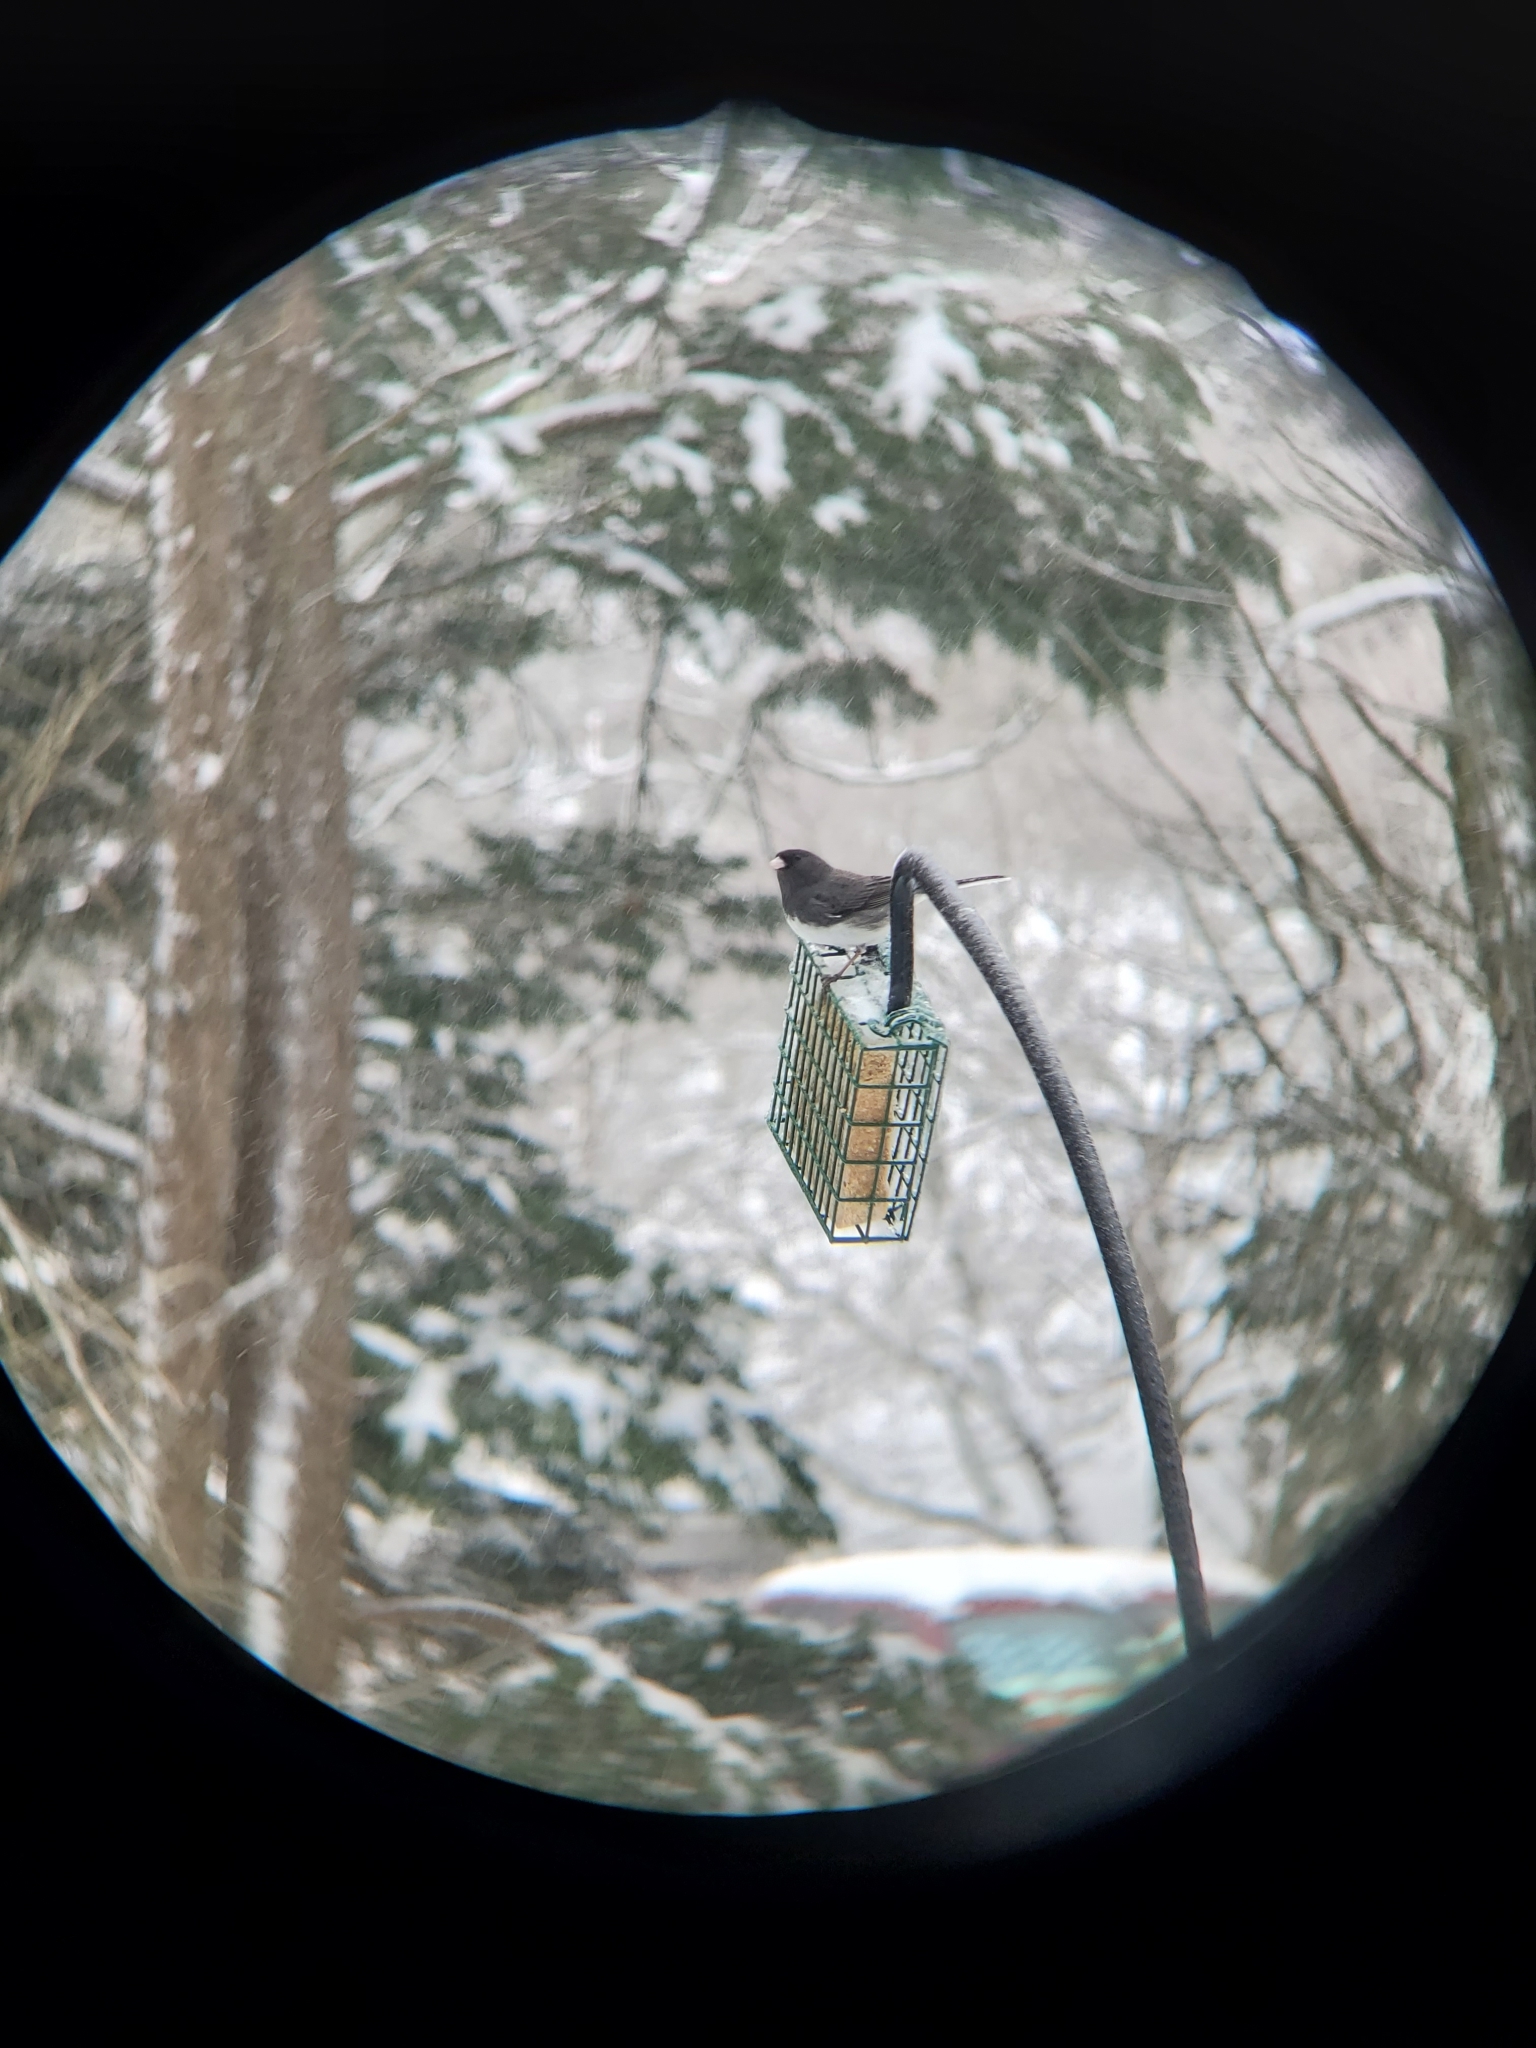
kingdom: Animalia
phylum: Chordata
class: Aves
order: Passeriformes
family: Passerellidae
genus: Junco
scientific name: Junco hyemalis
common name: Dark-eyed junco
